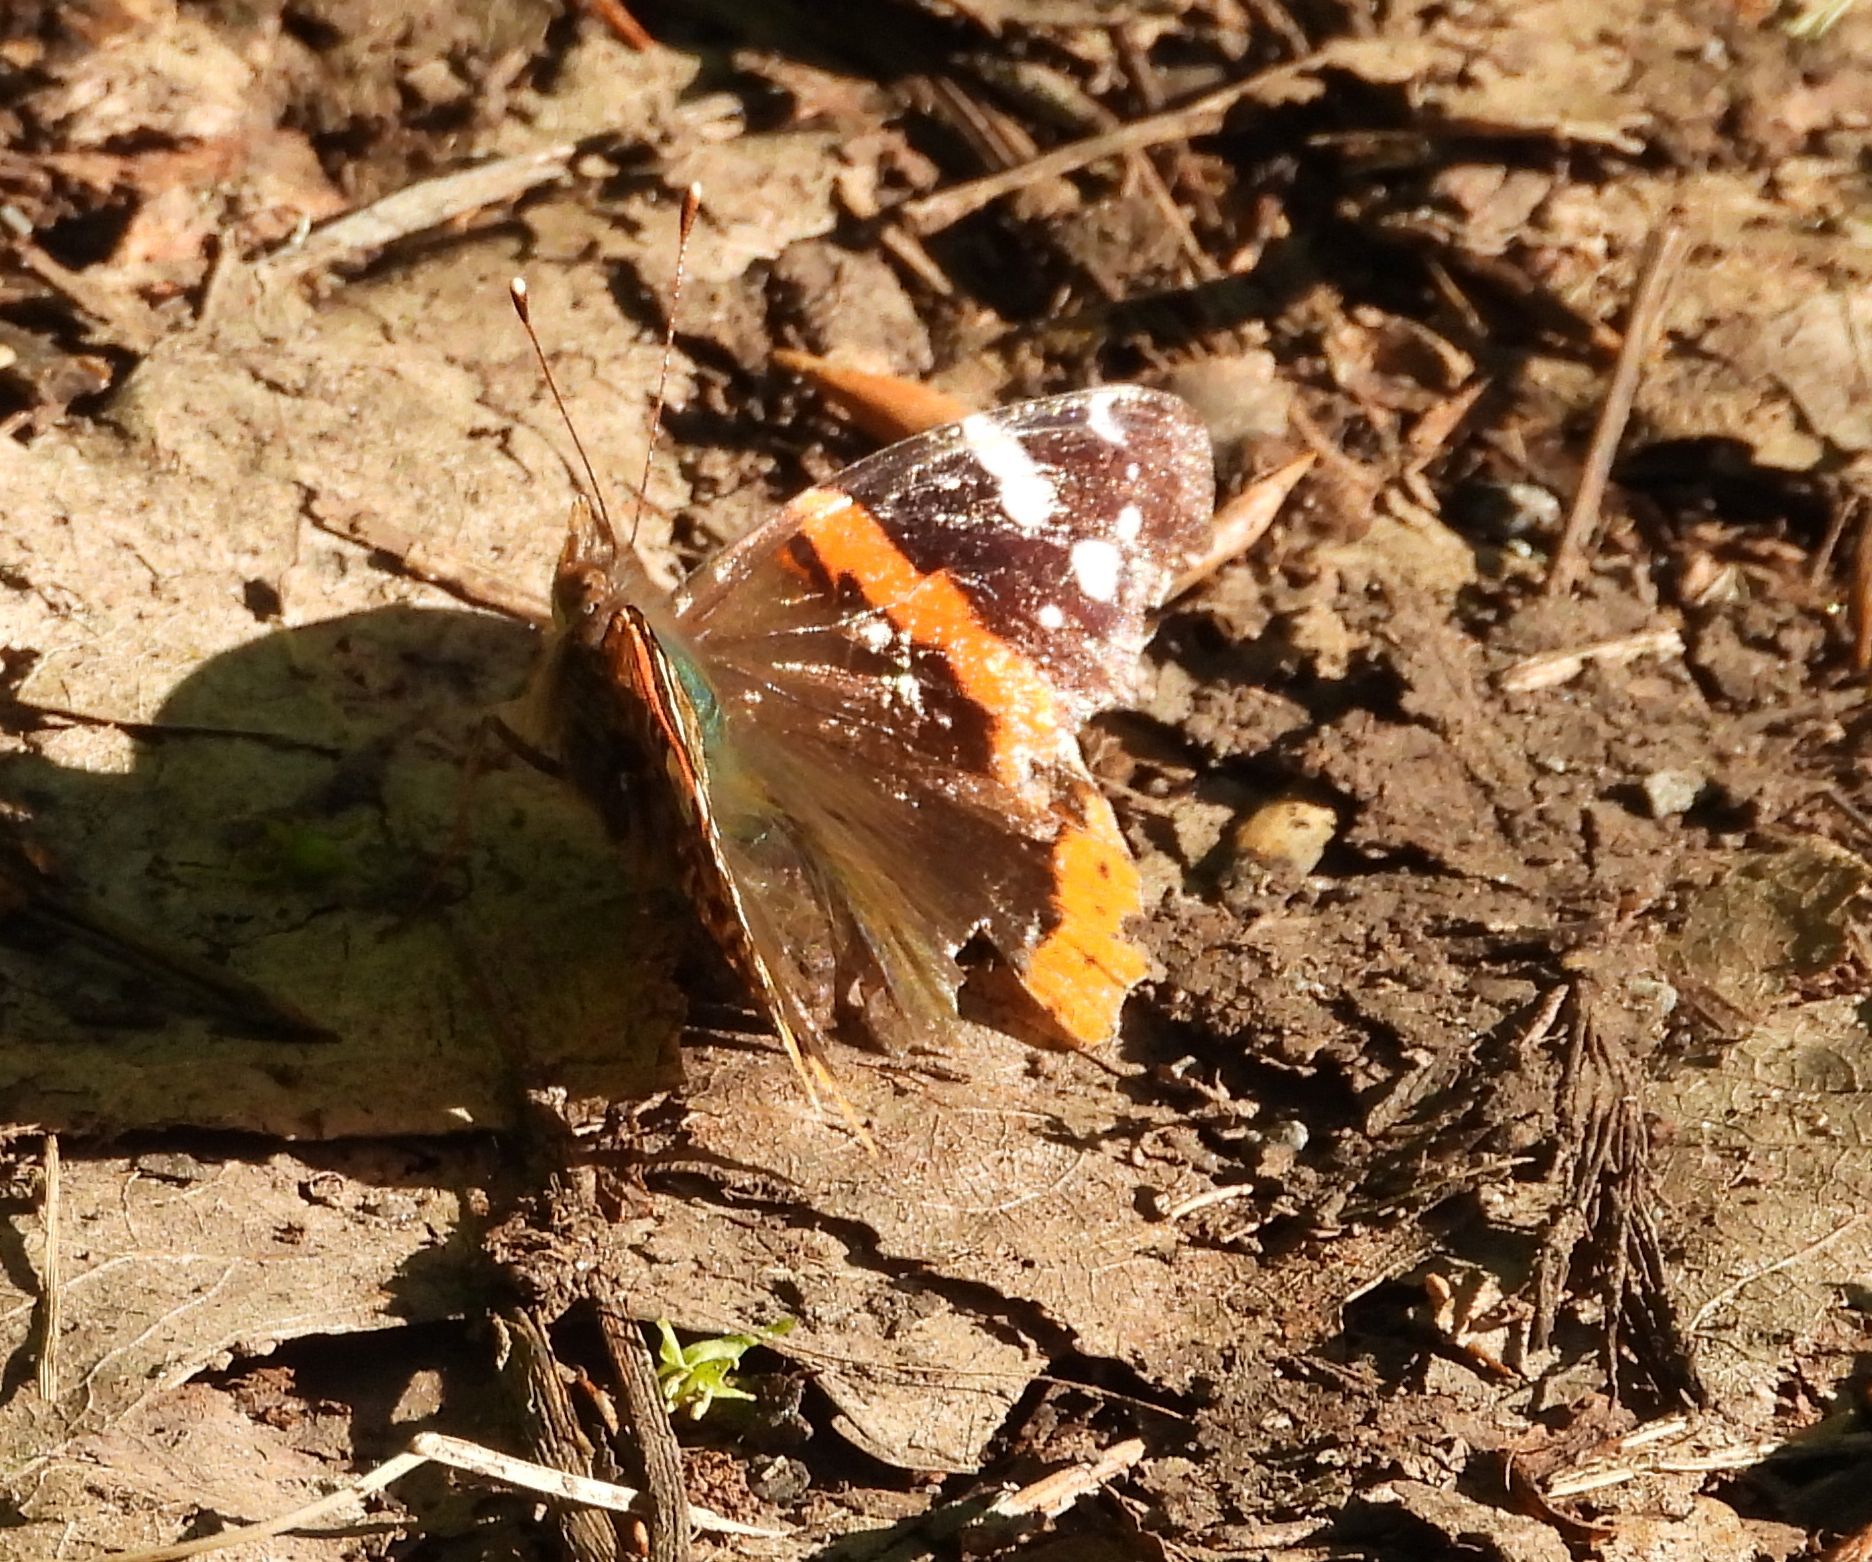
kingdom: Animalia
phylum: Arthropoda
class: Insecta
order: Lepidoptera
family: Nymphalidae
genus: Vanessa
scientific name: Vanessa atalanta
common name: Red admiral
